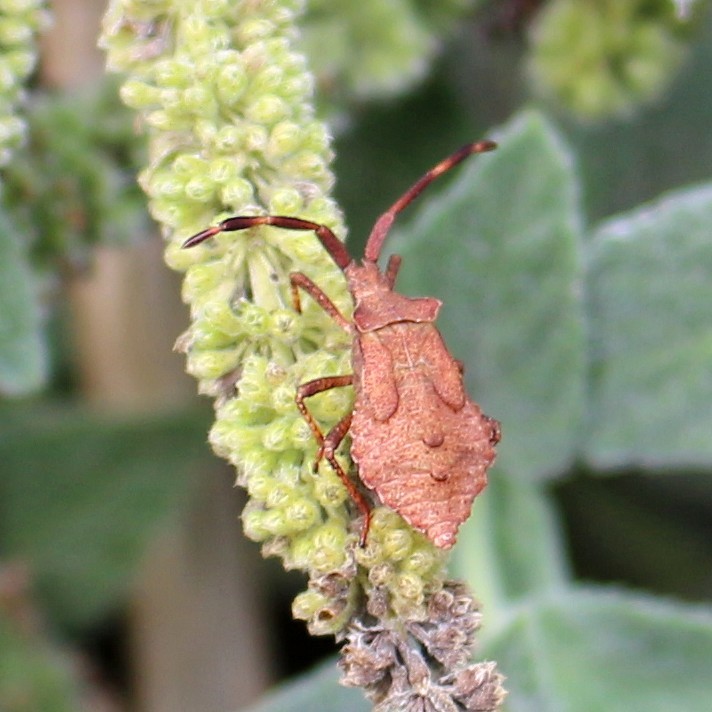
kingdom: Animalia
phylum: Arthropoda
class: Insecta
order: Hemiptera
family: Coreidae
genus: Coreus
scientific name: Coreus marginatus
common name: Dock bug
